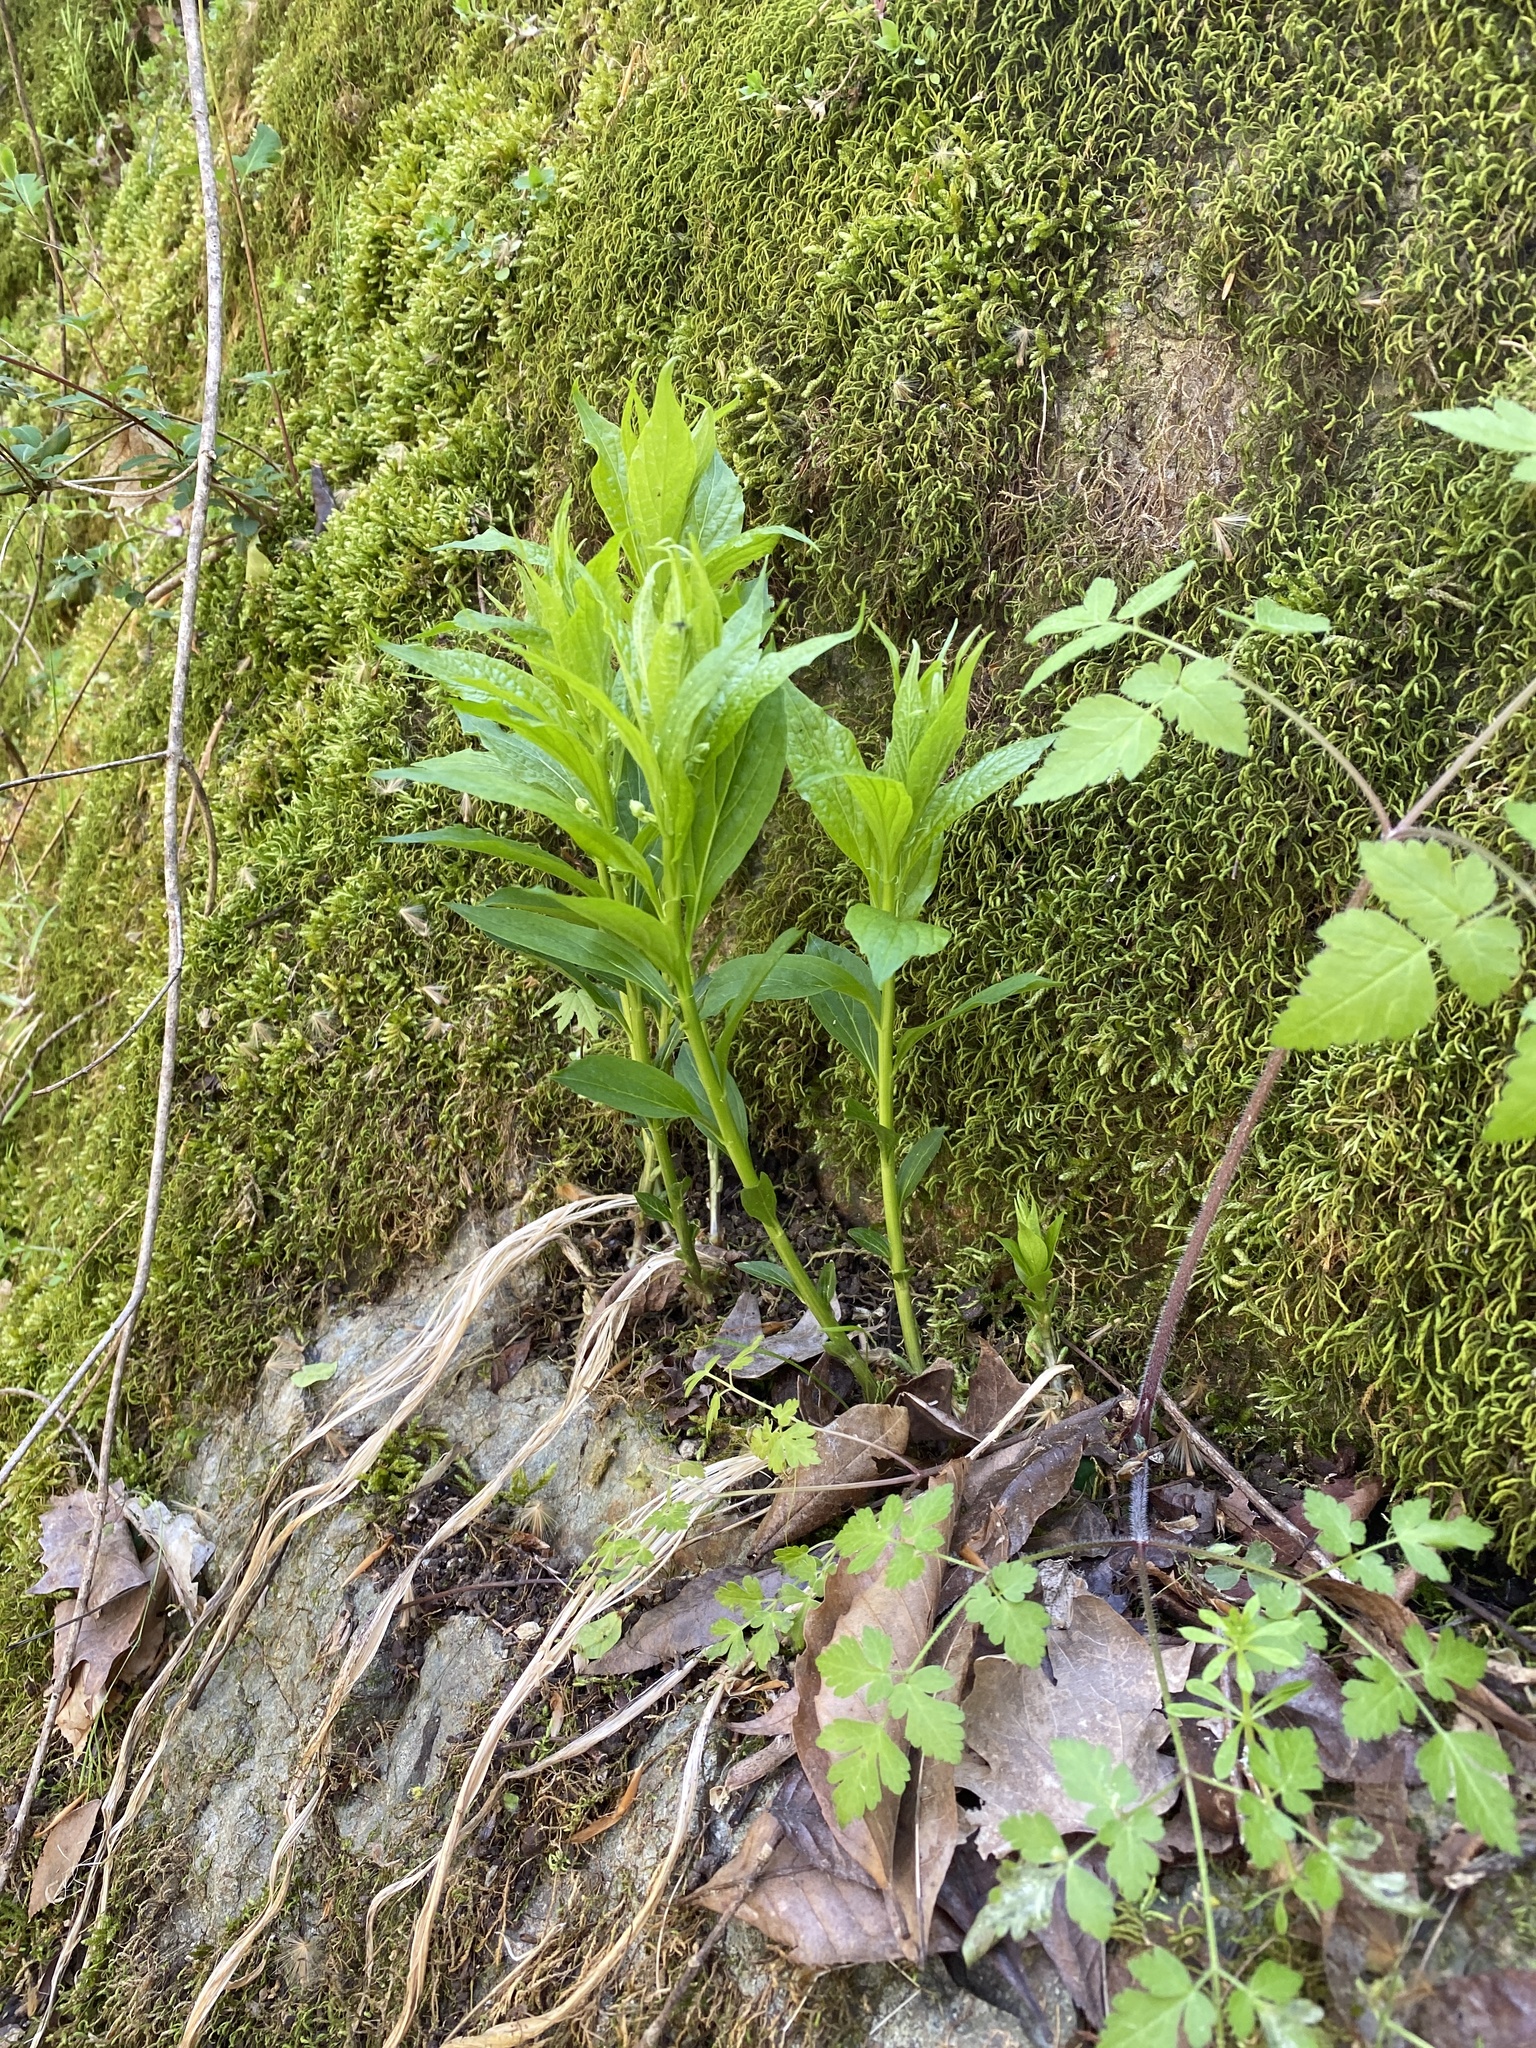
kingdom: Plantae
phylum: Tracheophyta
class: Magnoliopsida
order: Malpighiales
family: Violaceae
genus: Cubelium
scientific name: Cubelium concolor
